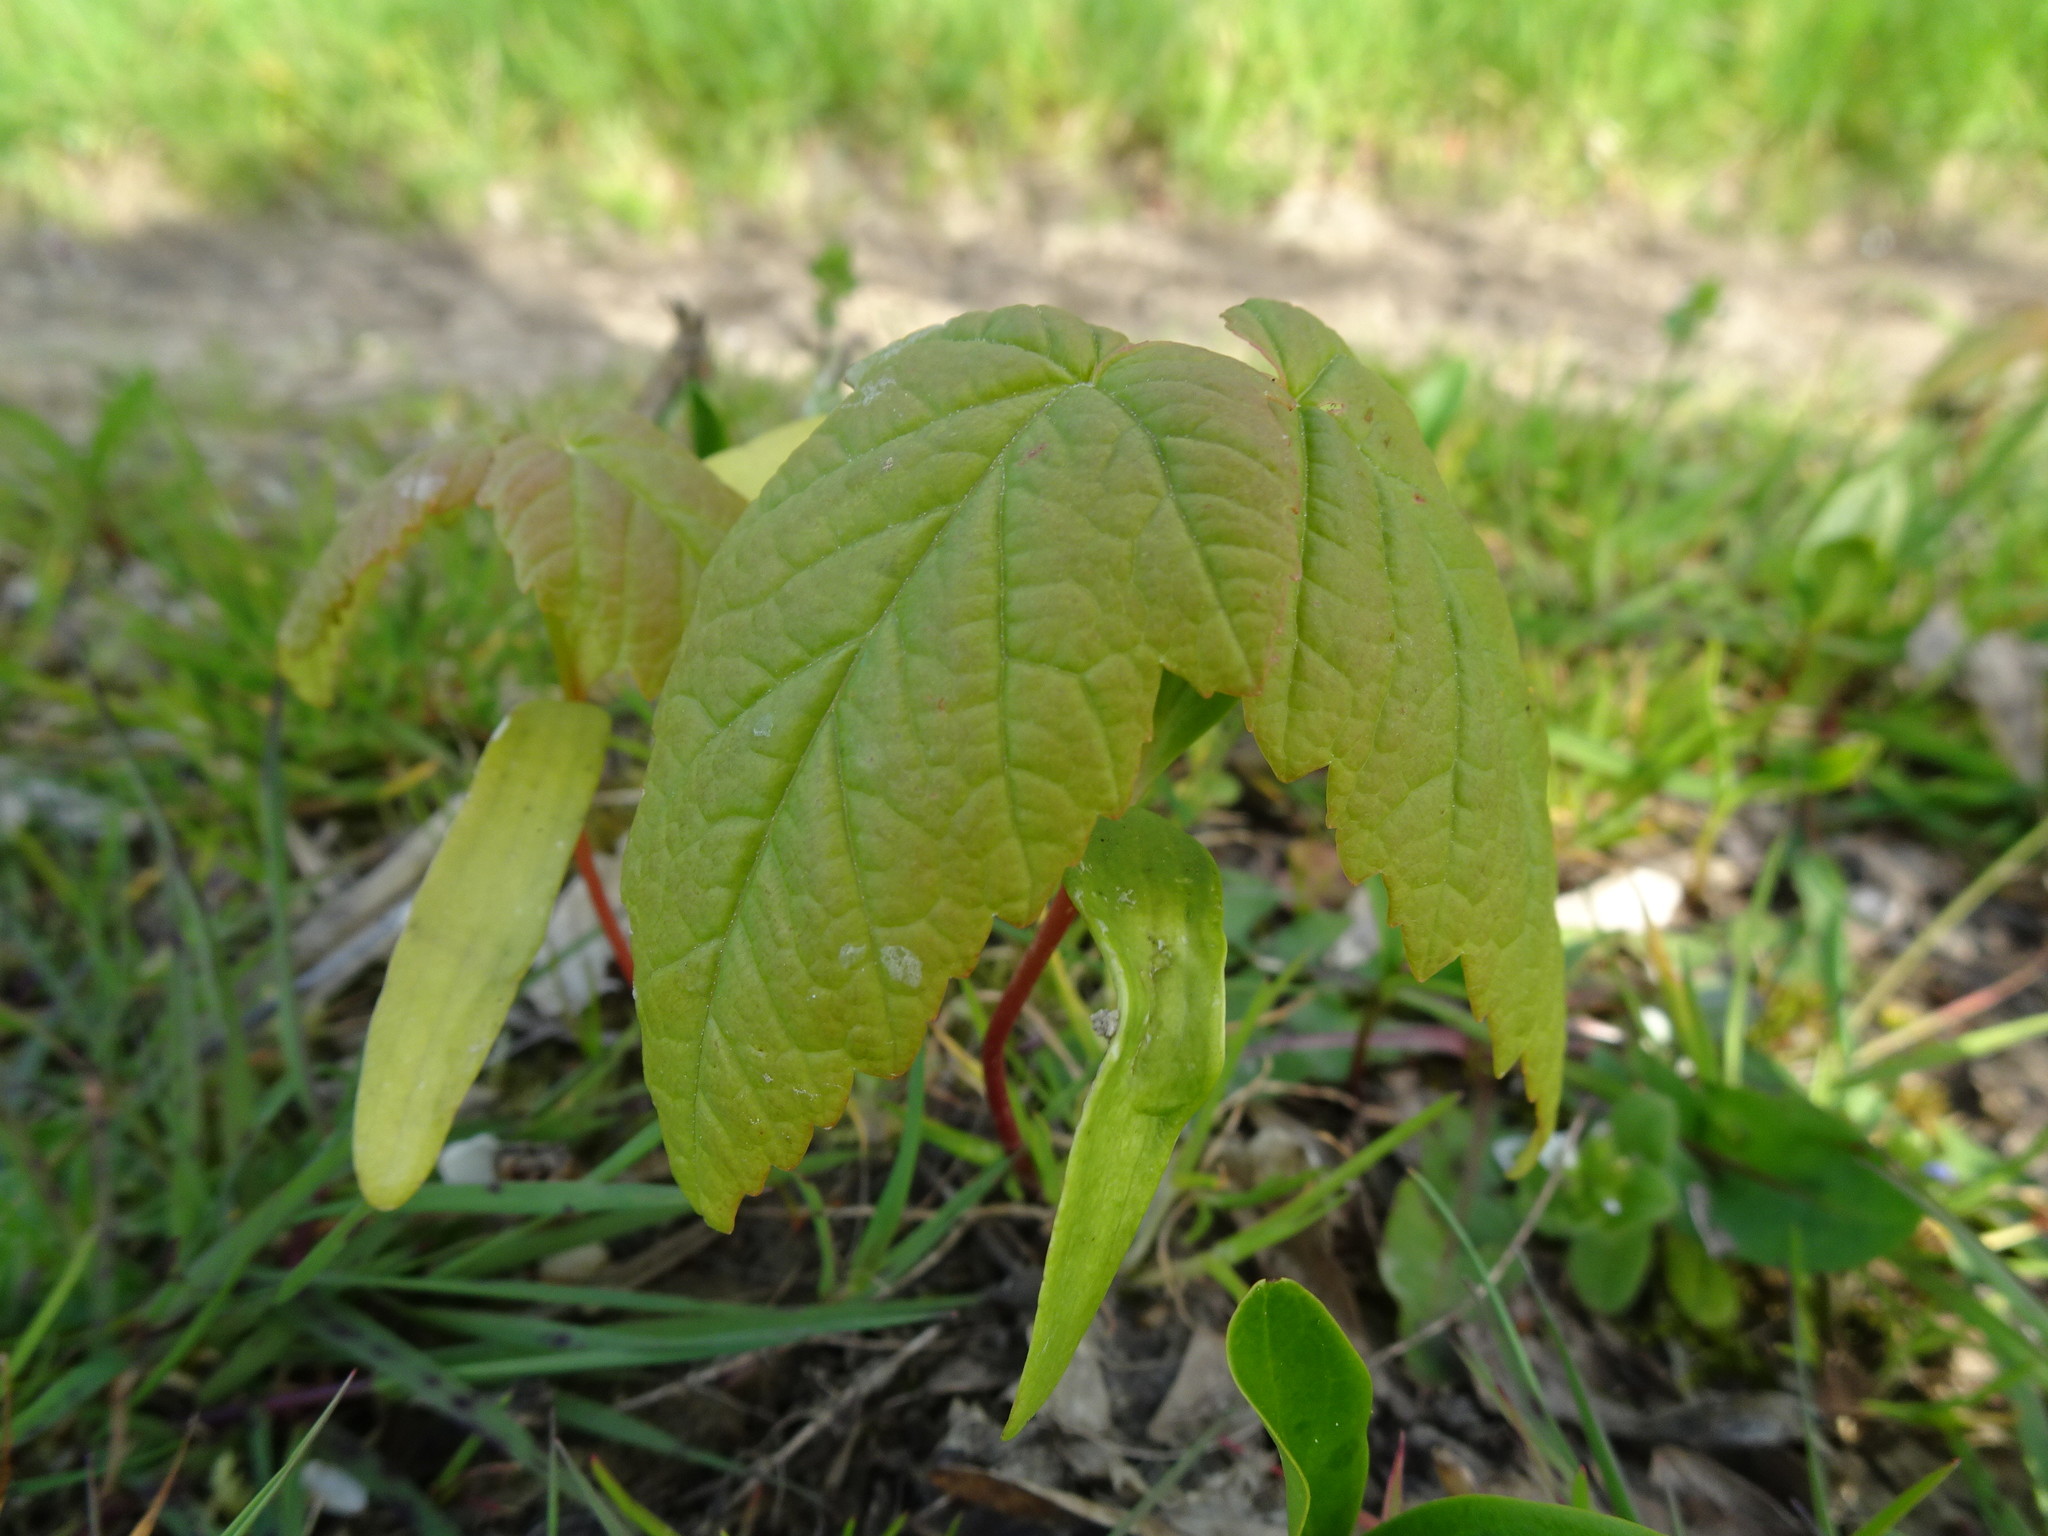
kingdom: Plantae
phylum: Tracheophyta
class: Magnoliopsida
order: Sapindales
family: Sapindaceae
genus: Acer
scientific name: Acer pseudoplatanus
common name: Sycamore
